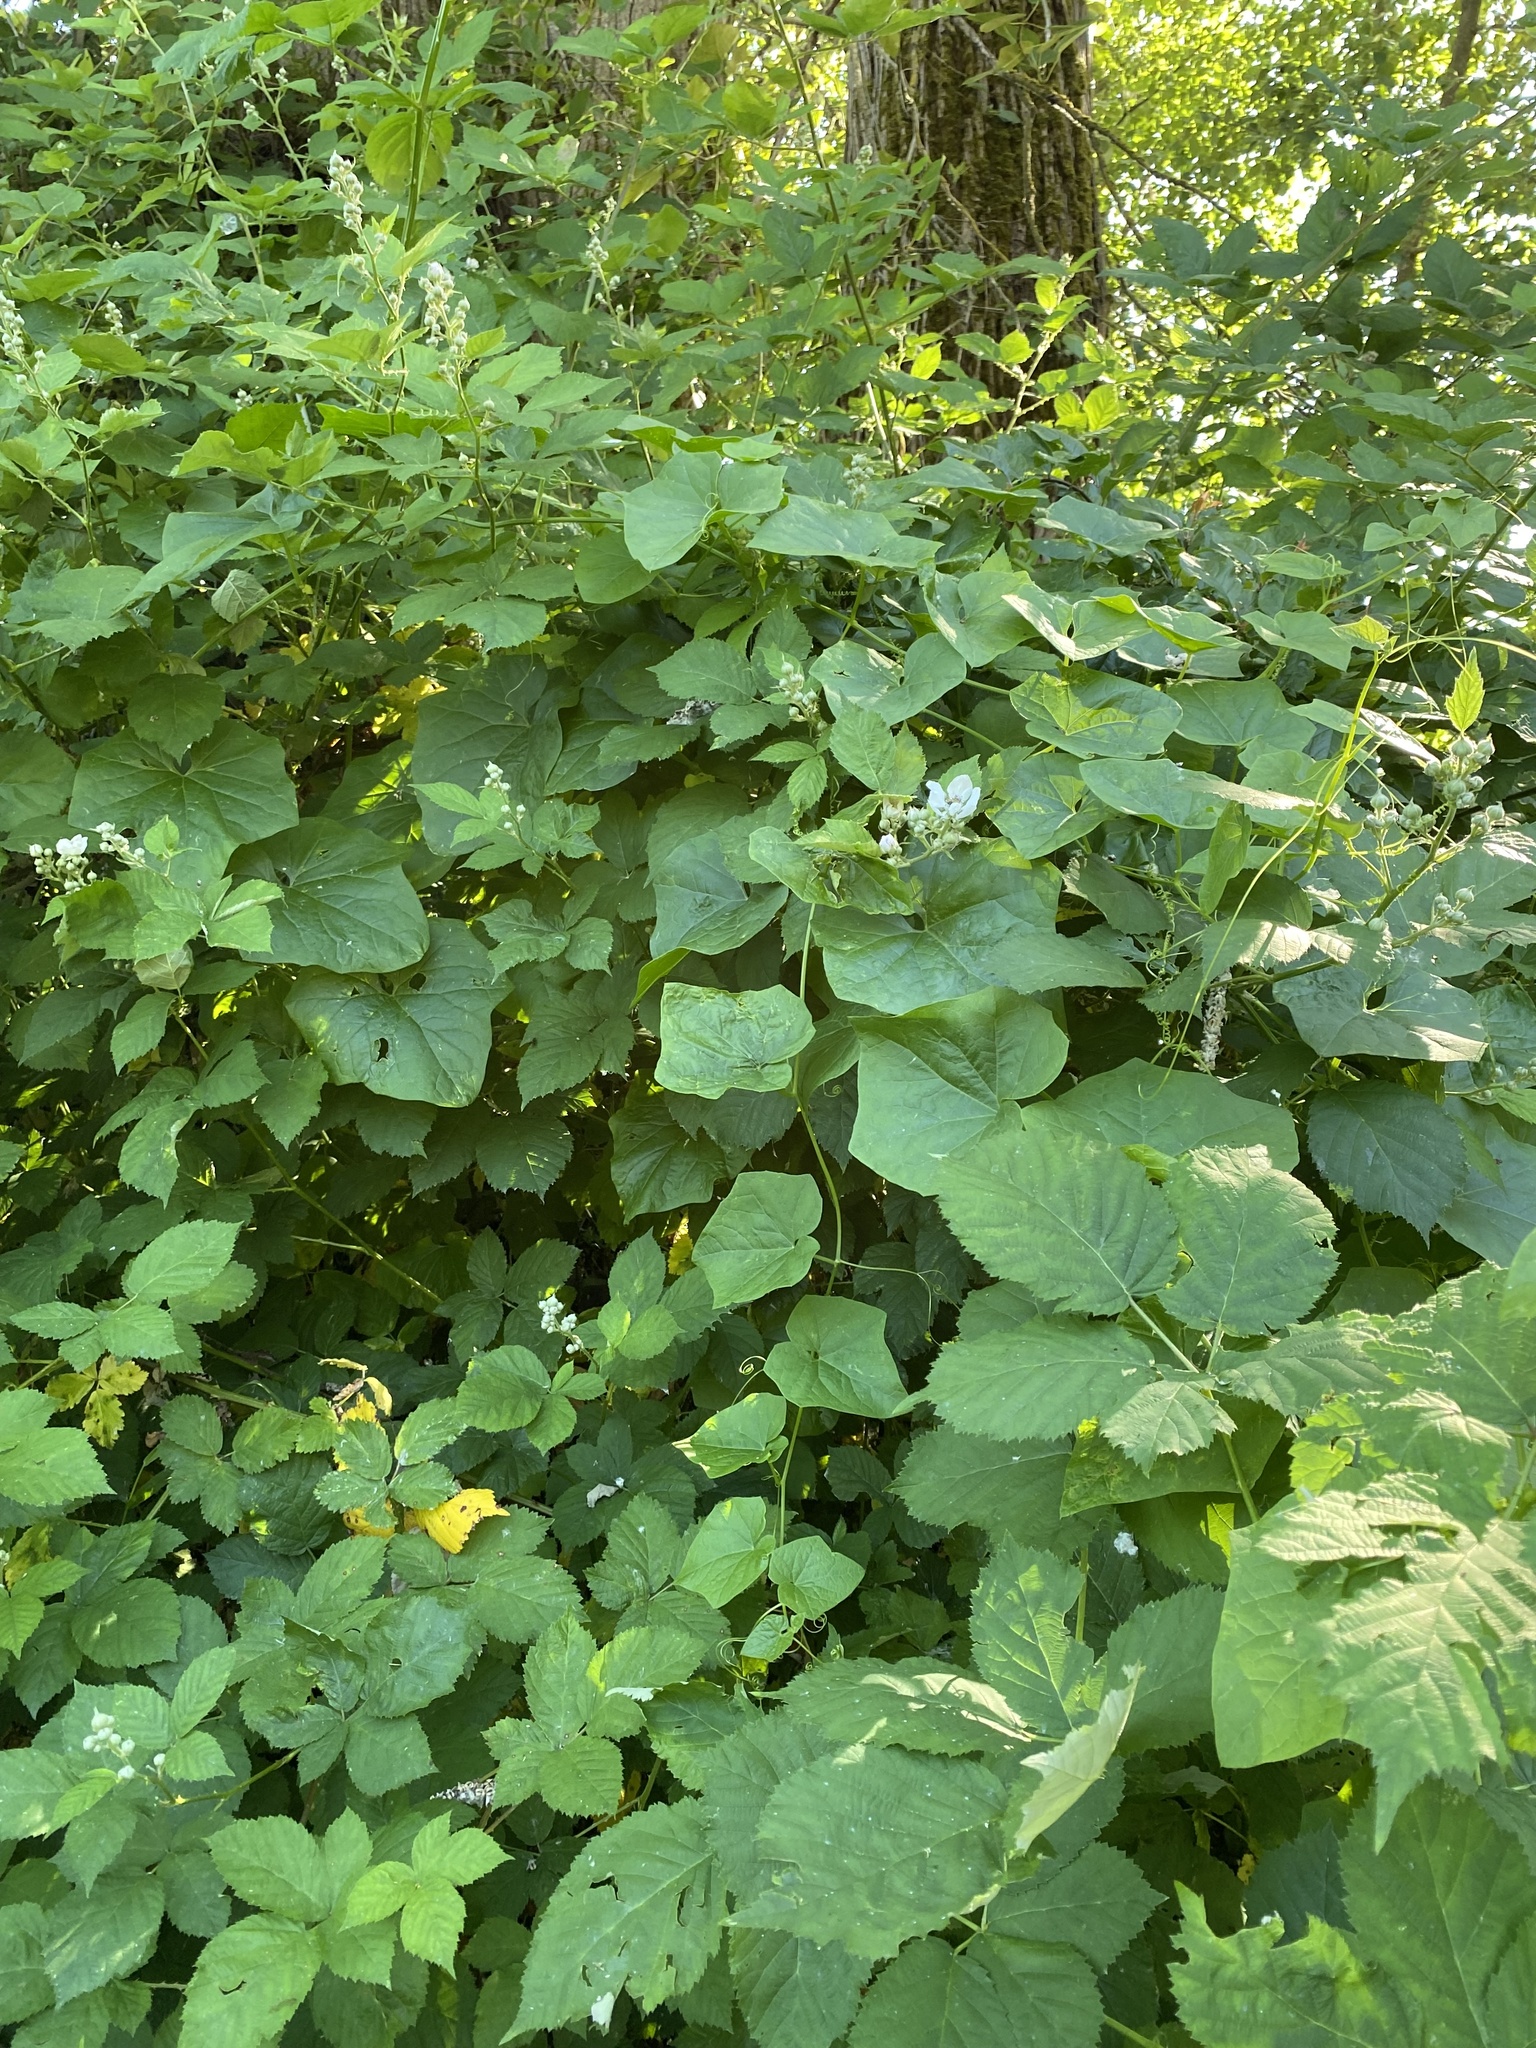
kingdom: Plantae
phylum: Tracheophyta
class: Magnoliopsida
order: Cucurbitales
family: Cucurbitaceae
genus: Marah
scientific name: Marah oregana
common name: Coastal manroot
